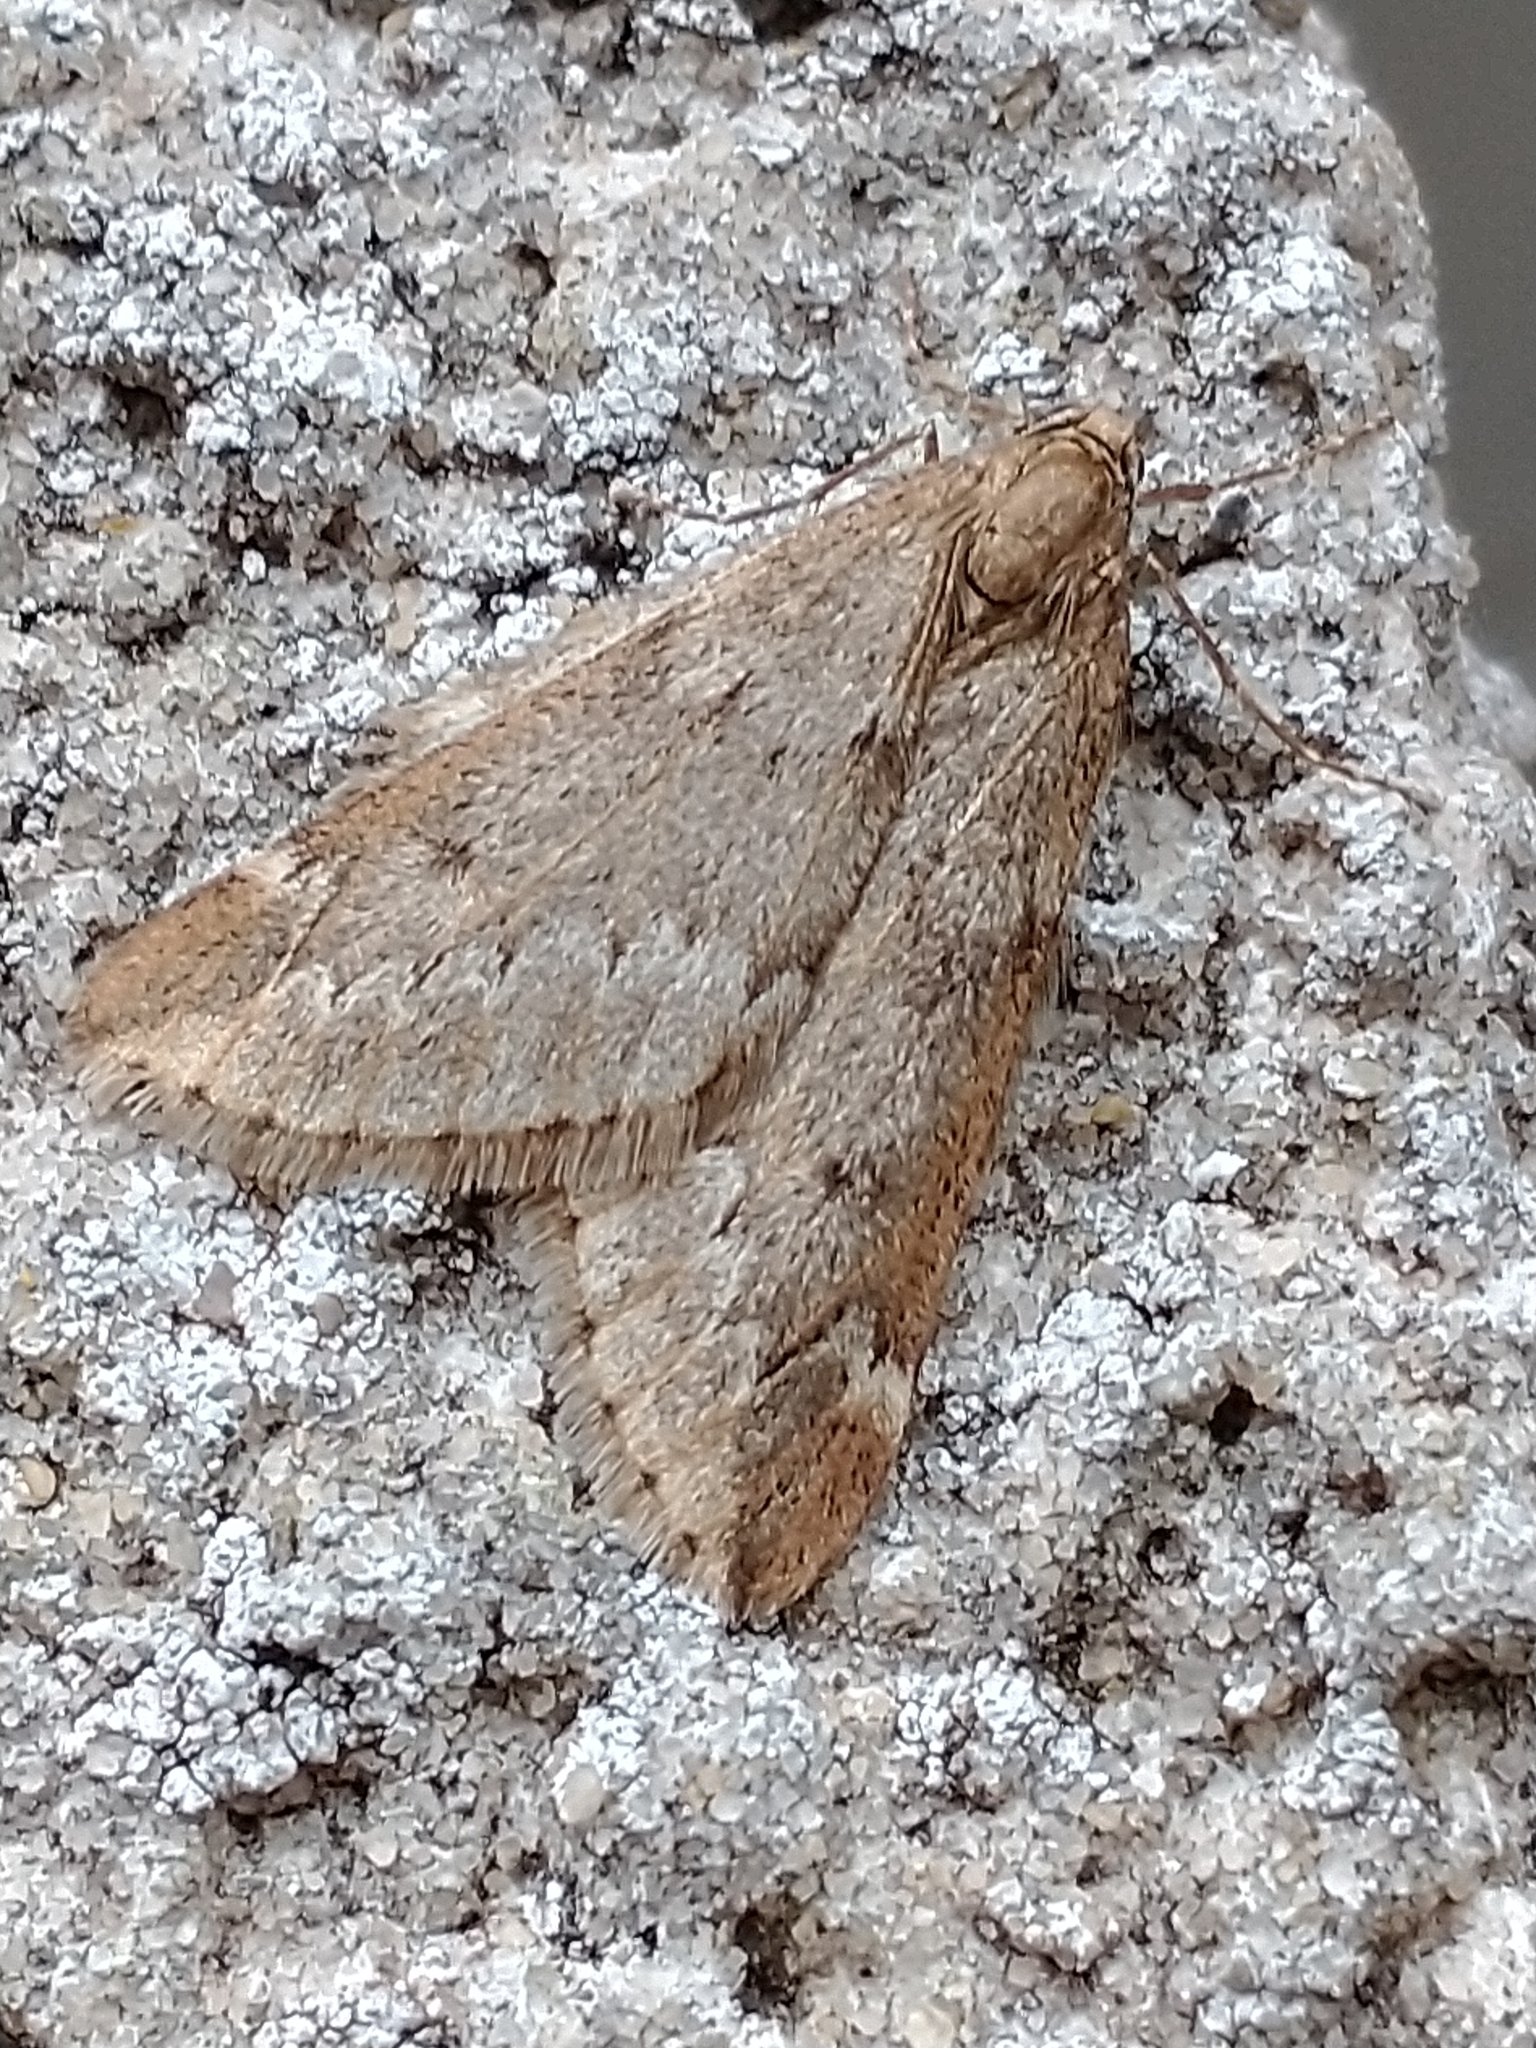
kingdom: Animalia
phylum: Arthropoda
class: Insecta
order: Lepidoptera
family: Geometridae
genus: Alsophila
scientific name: Alsophila aescularia
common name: March moth
